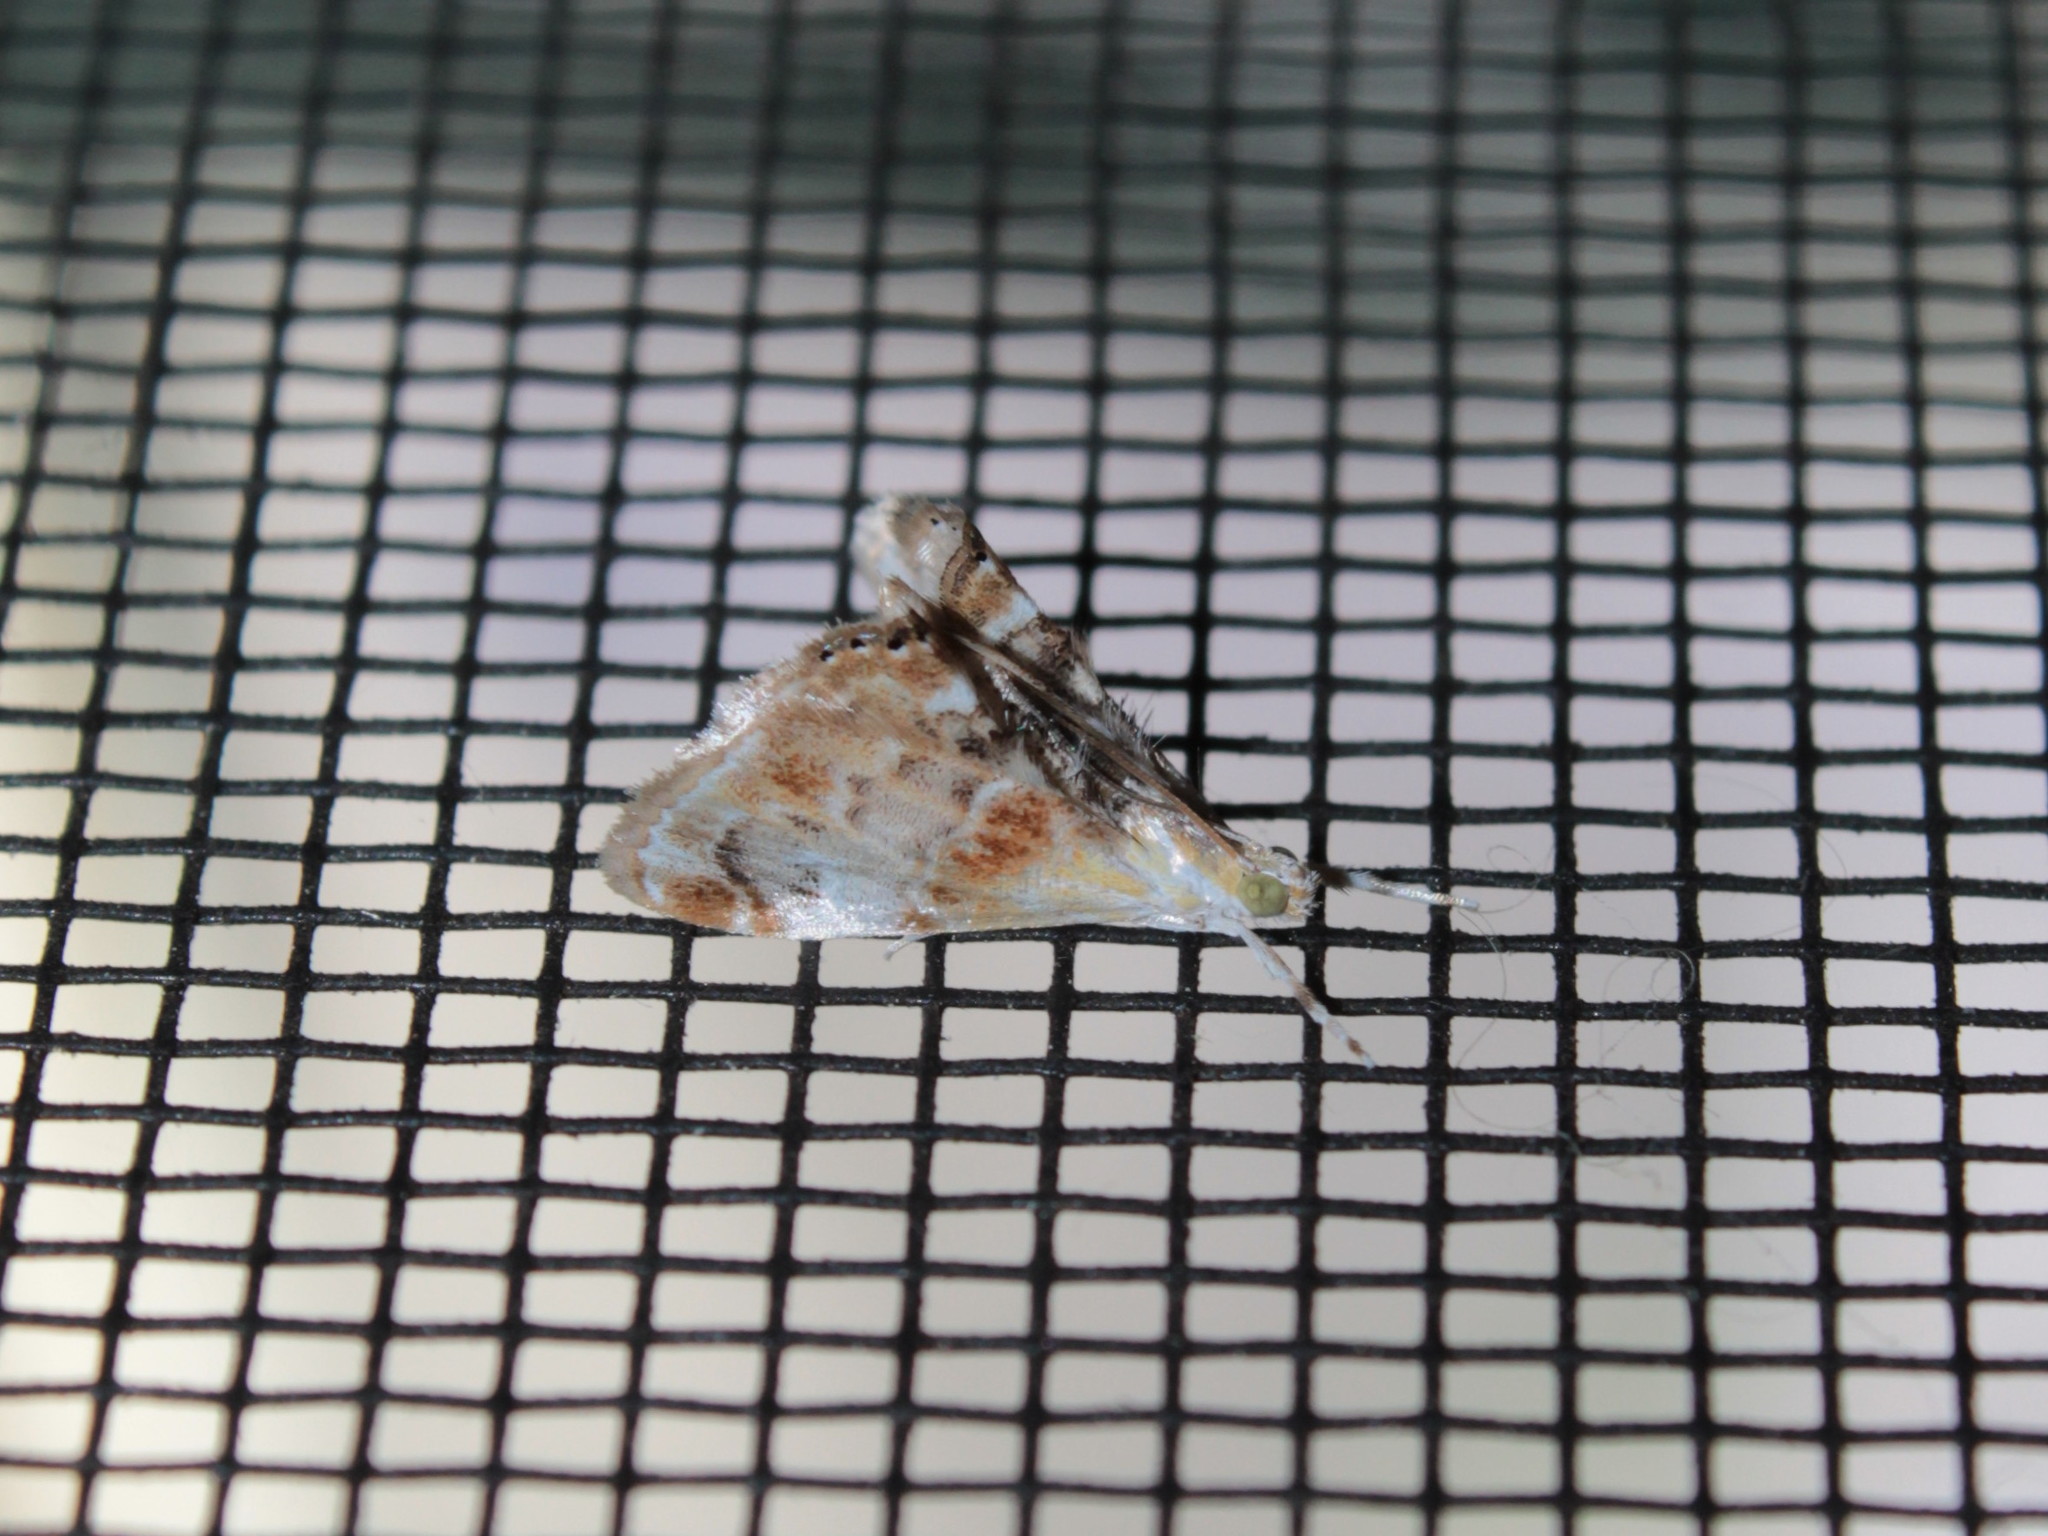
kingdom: Animalia
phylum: Arthropoda
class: Insecta
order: Lepidoptera
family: Crambidae
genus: Dicymolomia
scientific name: Dicymolomia julianalis
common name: Julia's dicymolomia moth
